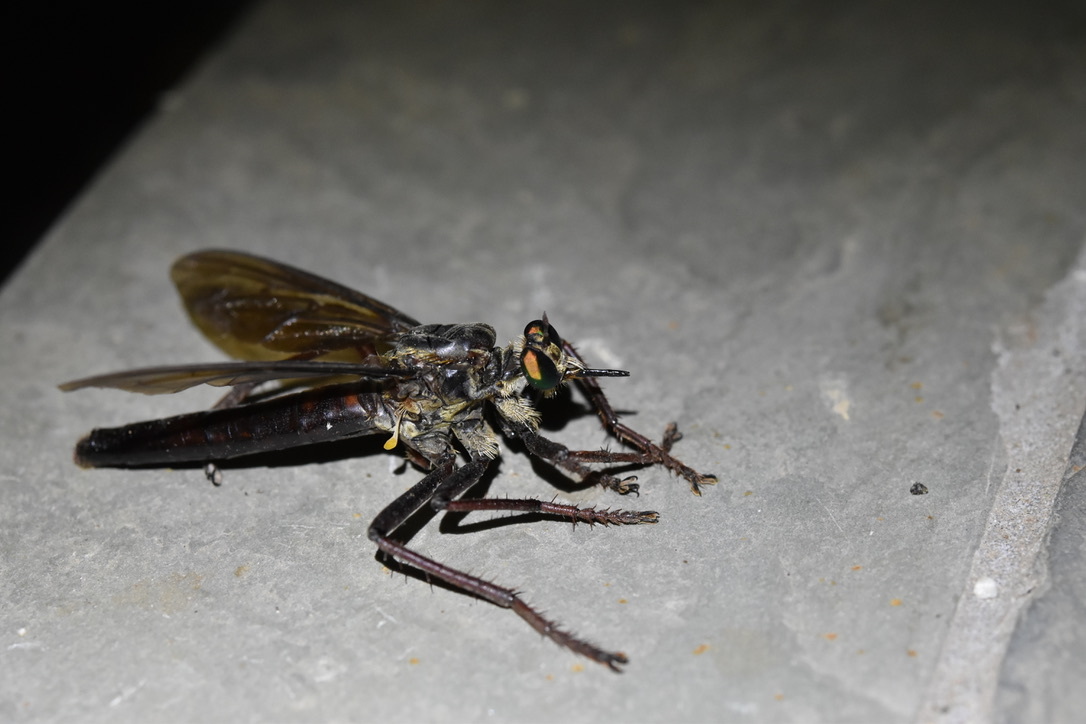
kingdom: Animalia
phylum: Arthropoda
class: Insecta
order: Diptera
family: Asilidae
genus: Microstylum
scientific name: Microstylum morosum
